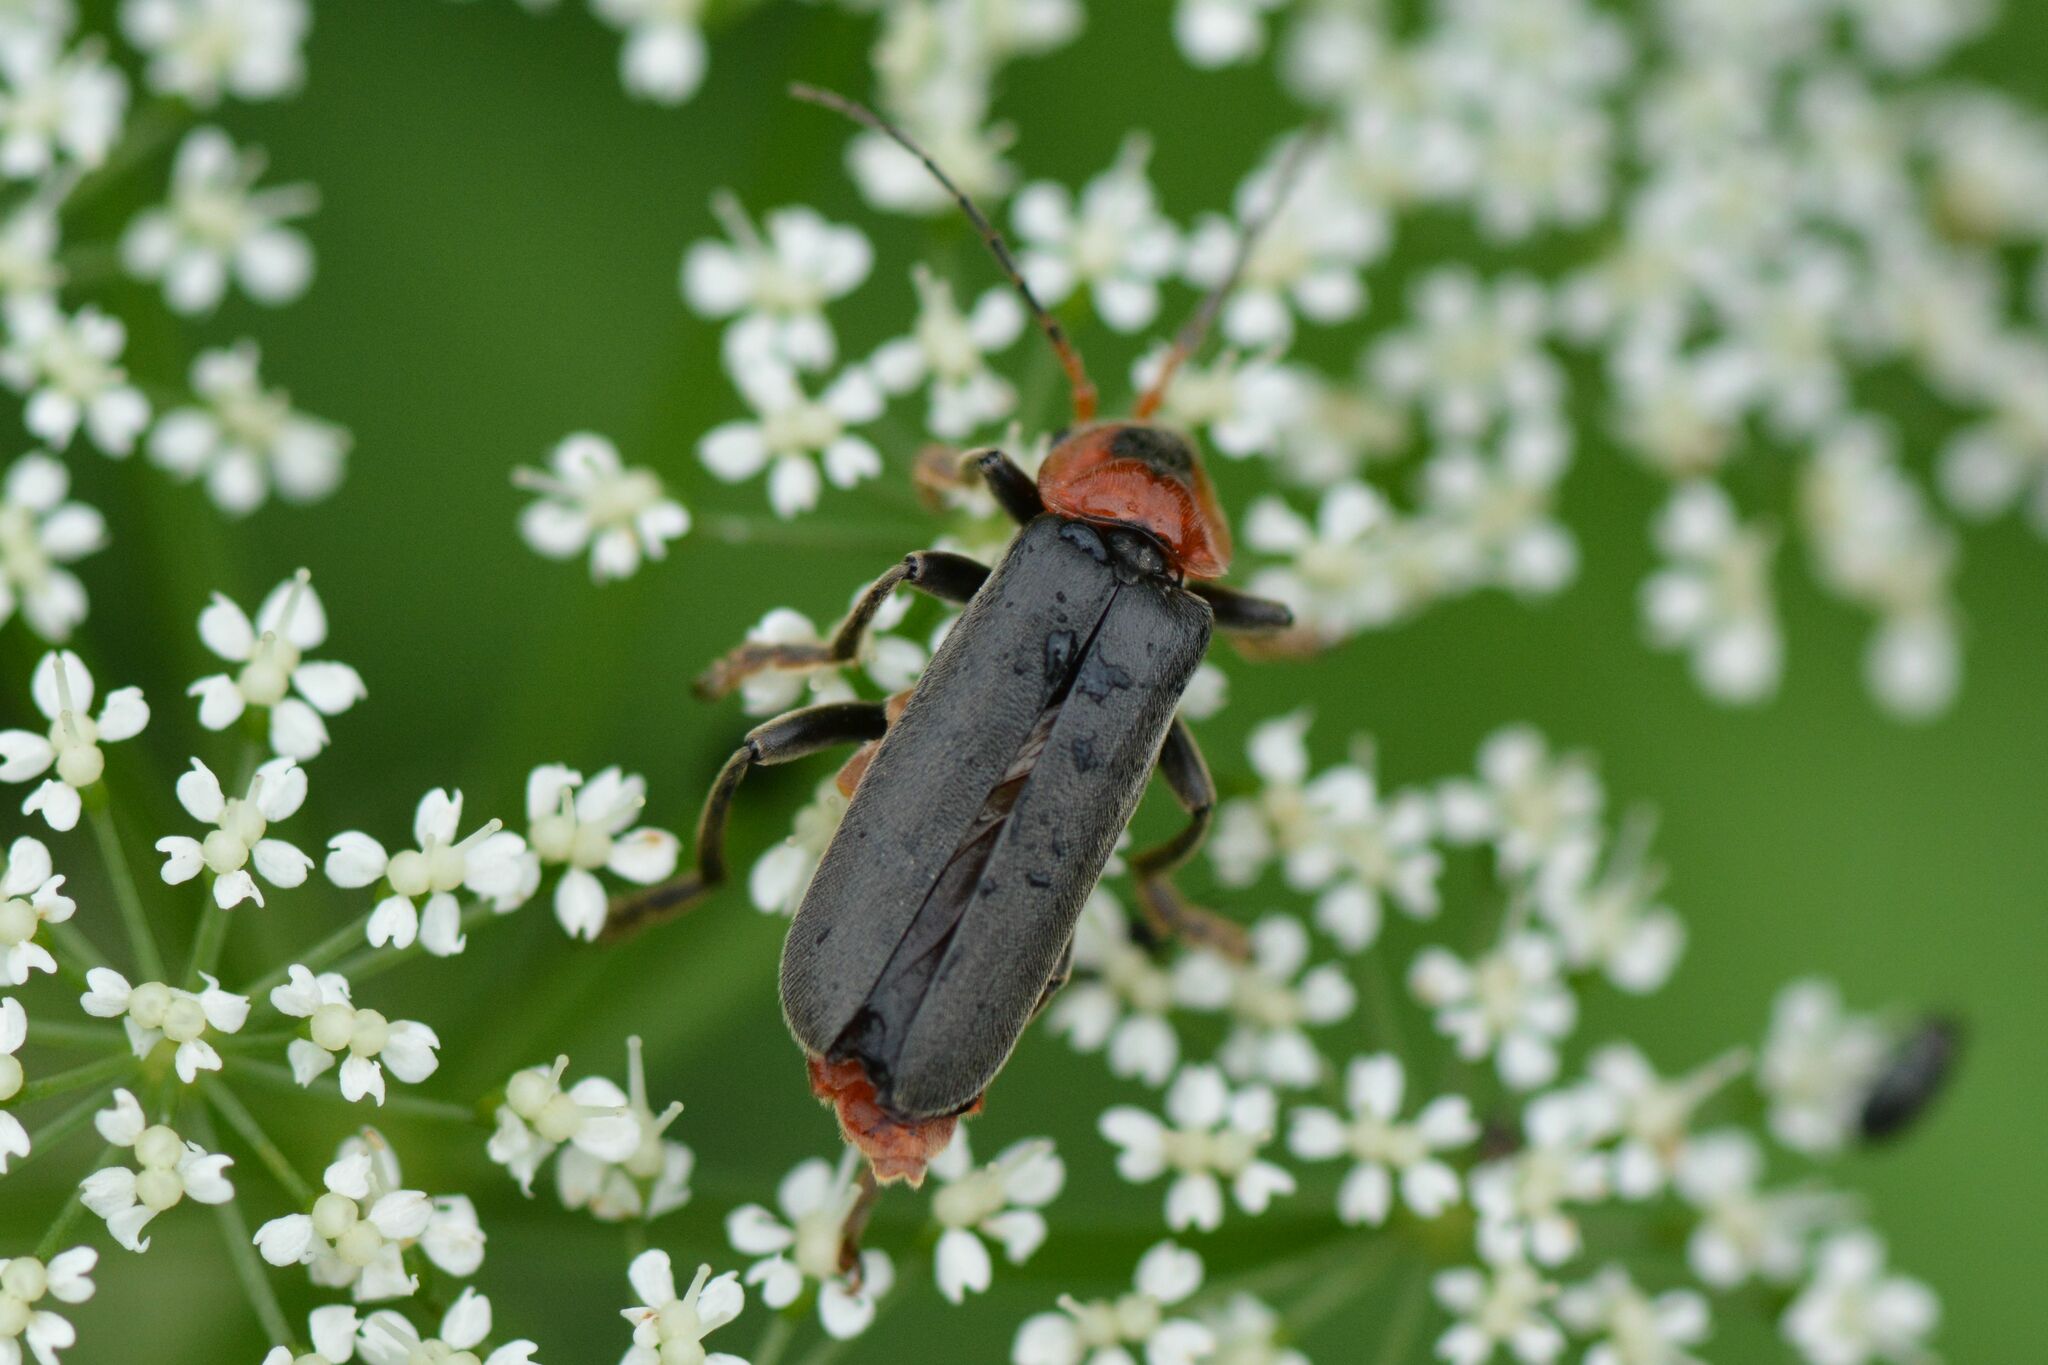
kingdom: Animalia
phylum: Arthropoda
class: Insecta
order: Coleoptera
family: Cantharidae
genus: Cantharis
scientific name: Cantharis fusca
